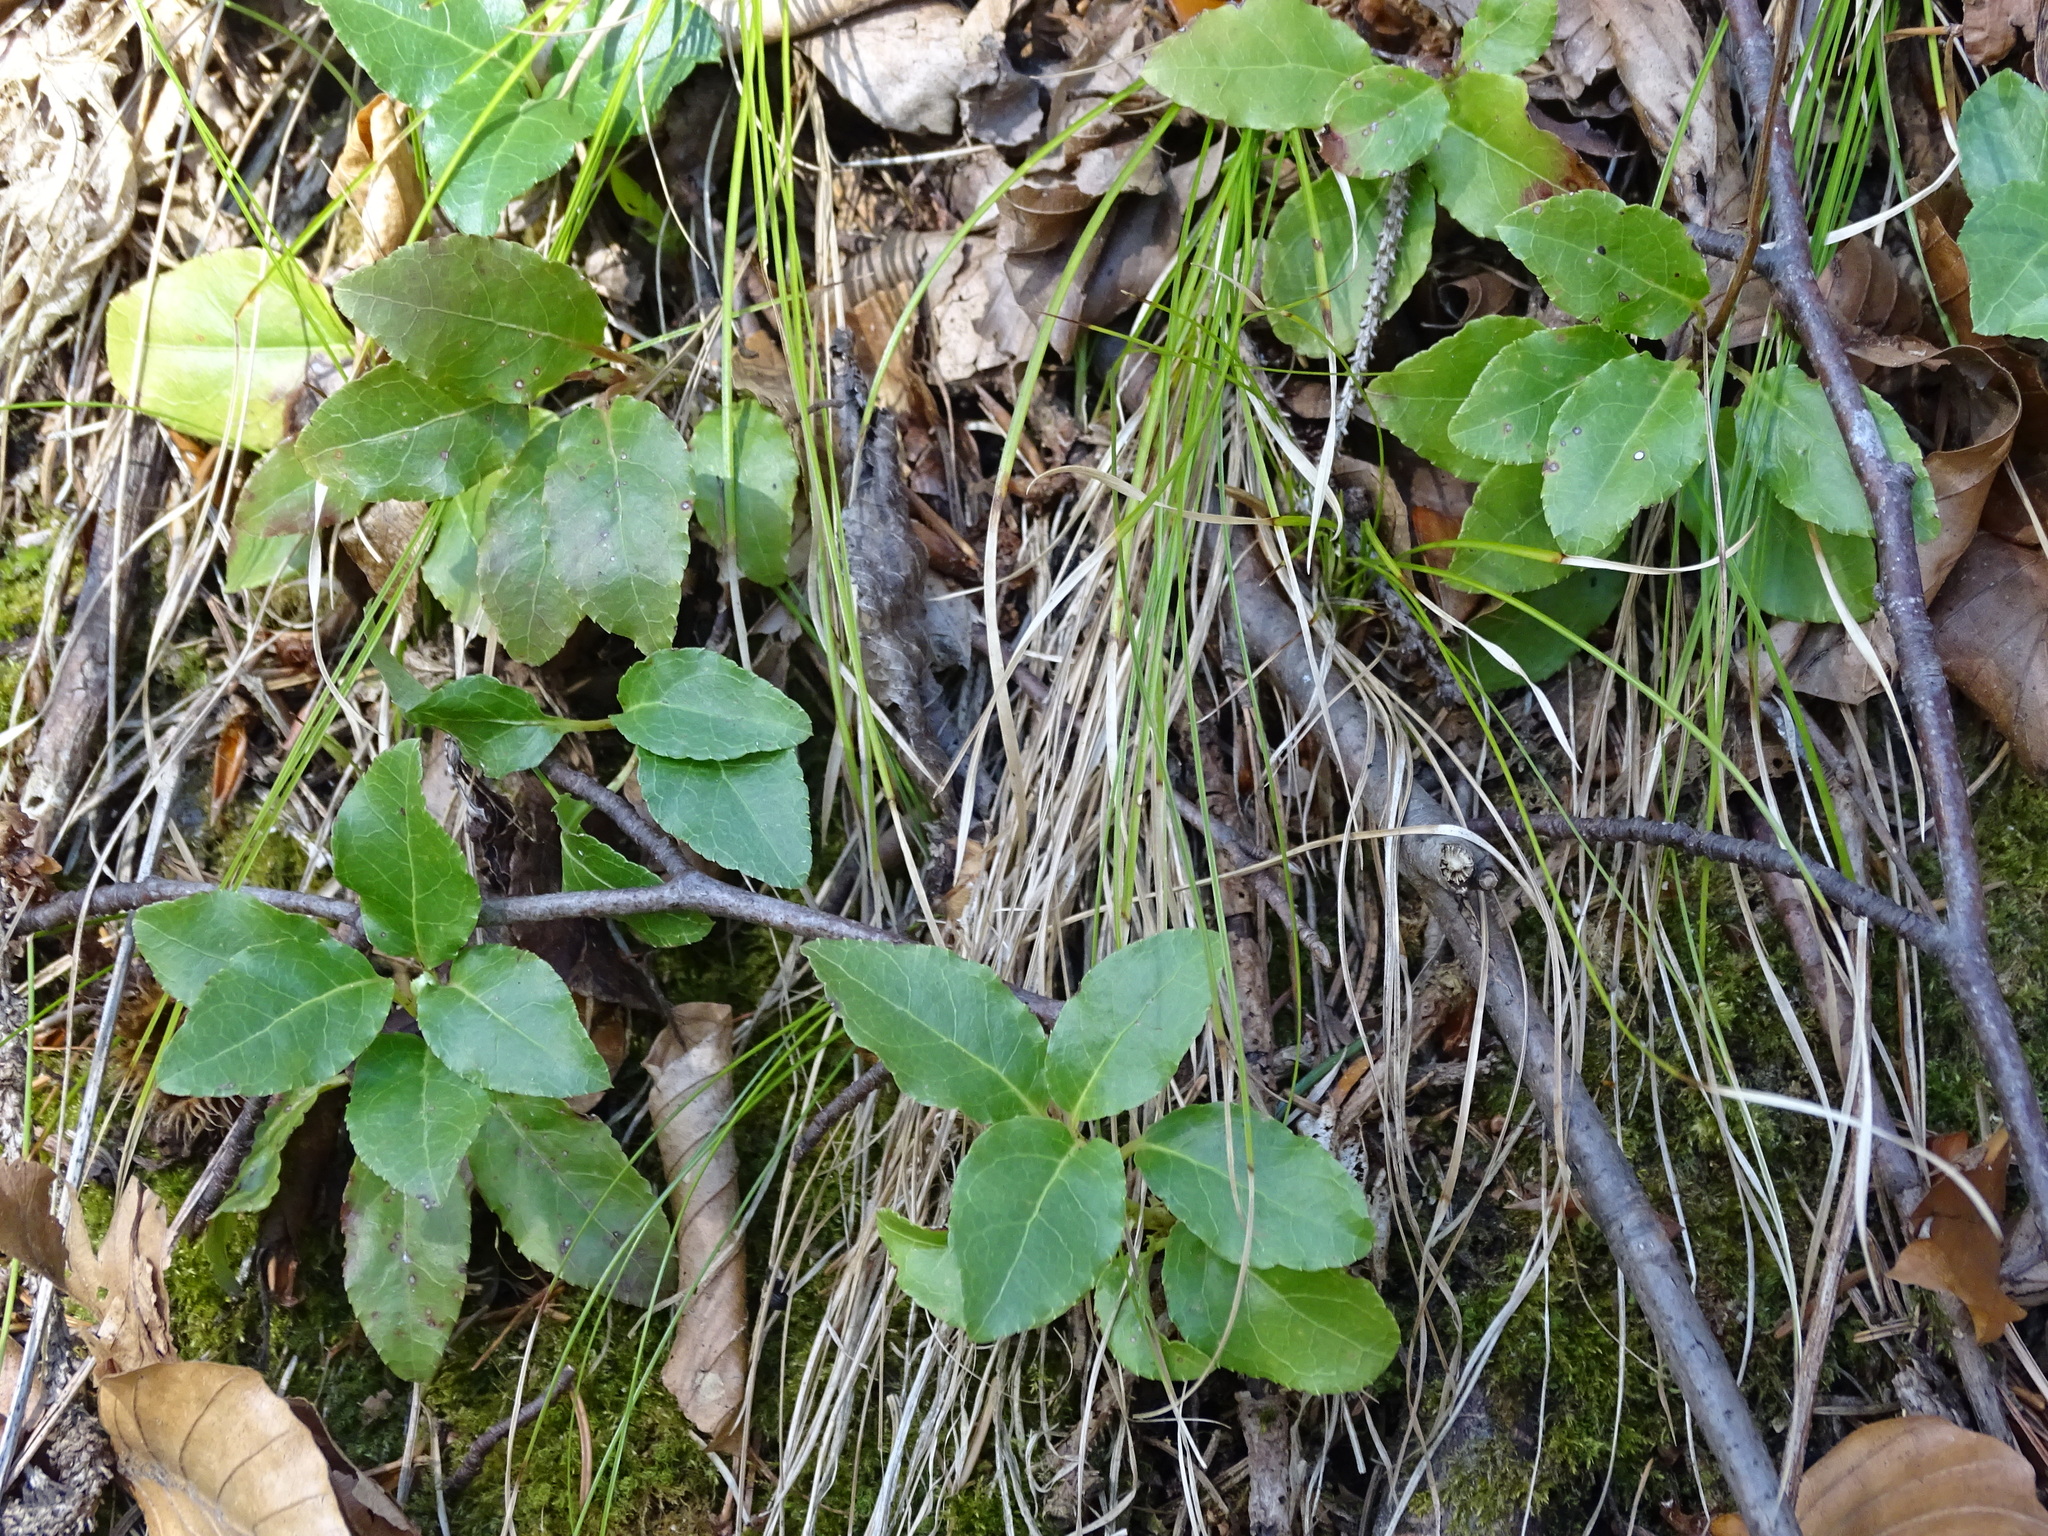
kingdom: Plantae
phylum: Tracheophyta
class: Magnoliopsida
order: Ericales
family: Ericaceae
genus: Orthilia
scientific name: Orthilia secunda
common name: One-sided orthilia
